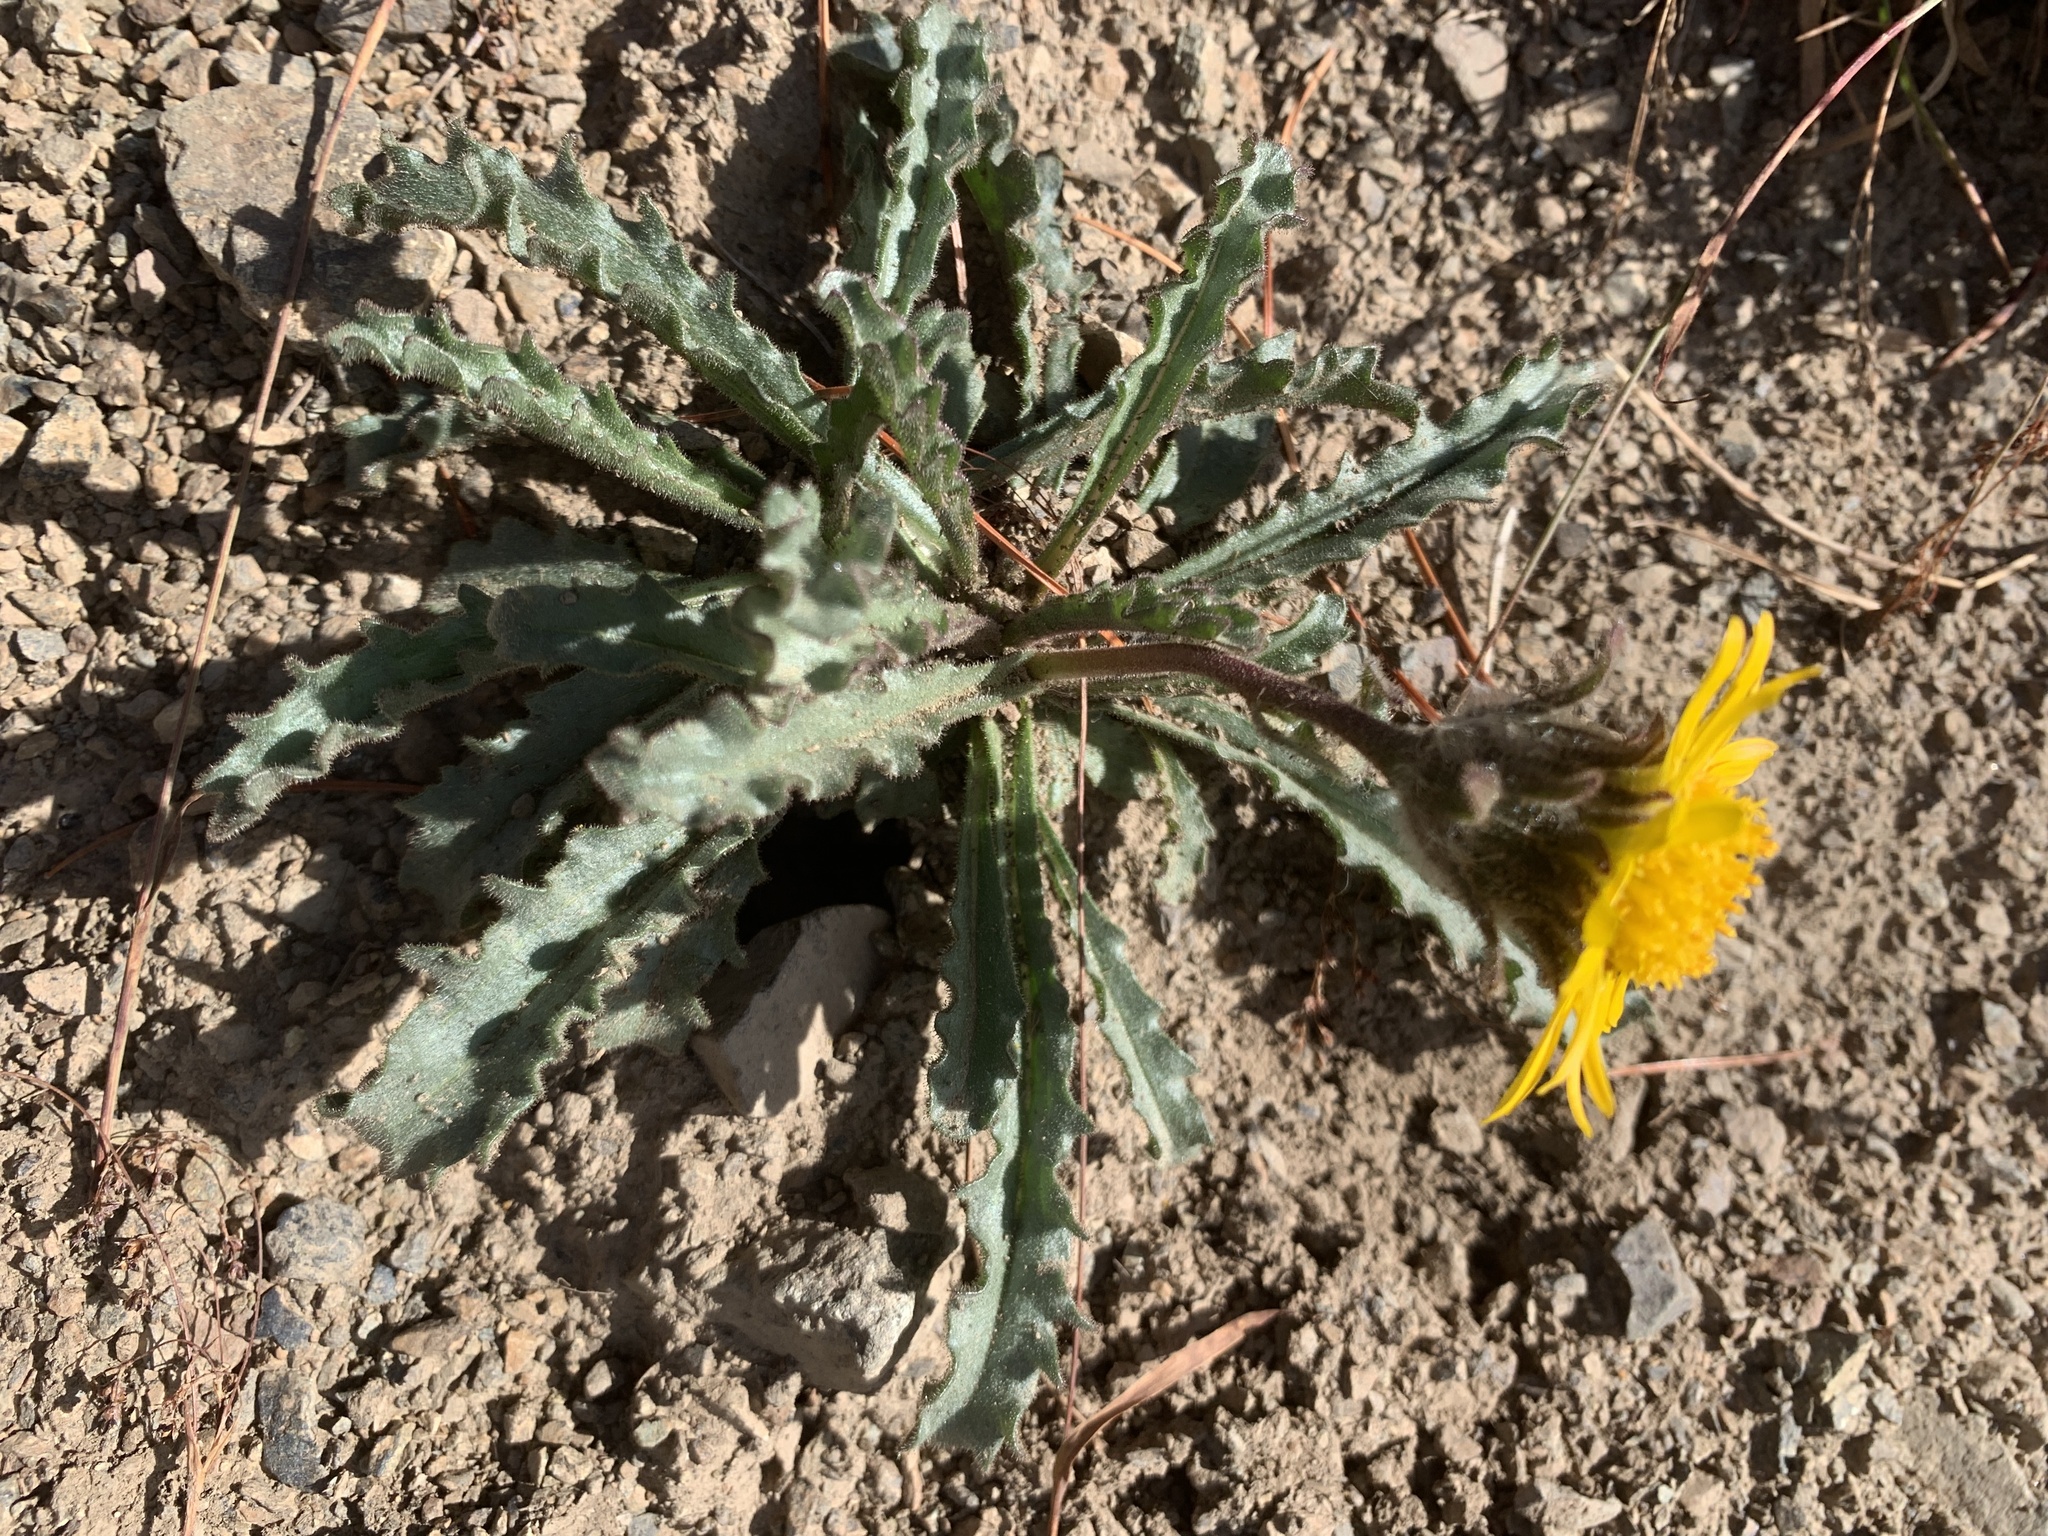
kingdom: Plantae
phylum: Tracheophyta
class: Magnoliopsida
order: Asterales
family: Asteraceae
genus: Hulsea
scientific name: Hulsea algida
